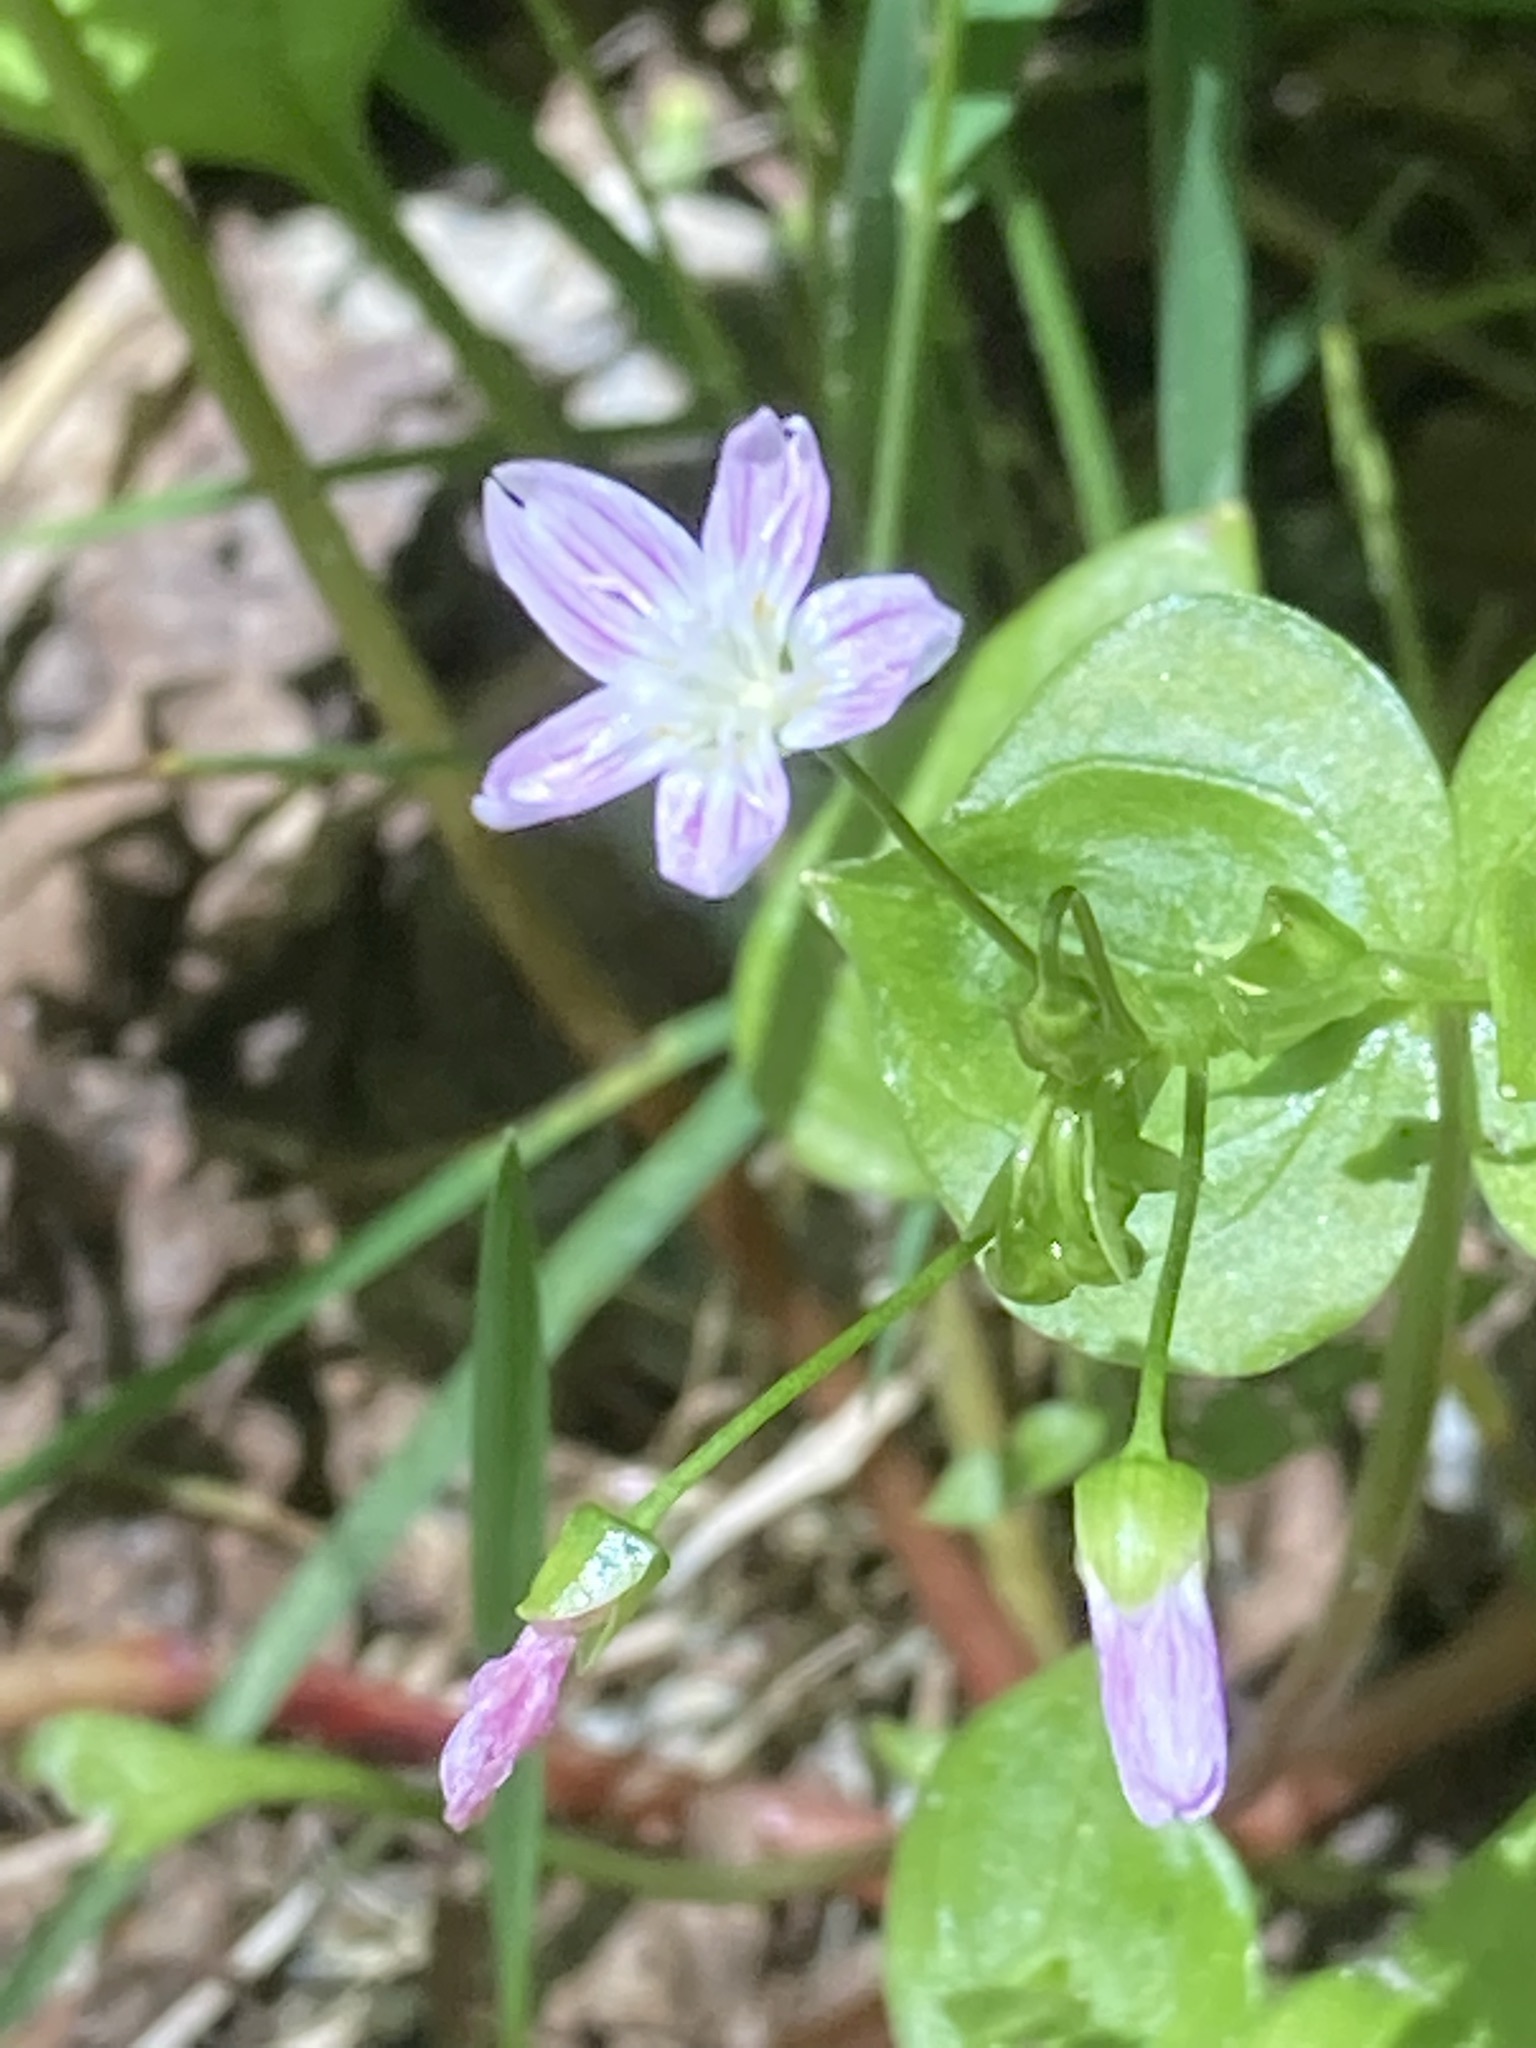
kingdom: Plantae
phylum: Tracheophyta
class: Magnoliopsida
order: Caryophyllales
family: Montiaceae
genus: Claytonia
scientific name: Claytonia sibirica
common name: Pink purslane
